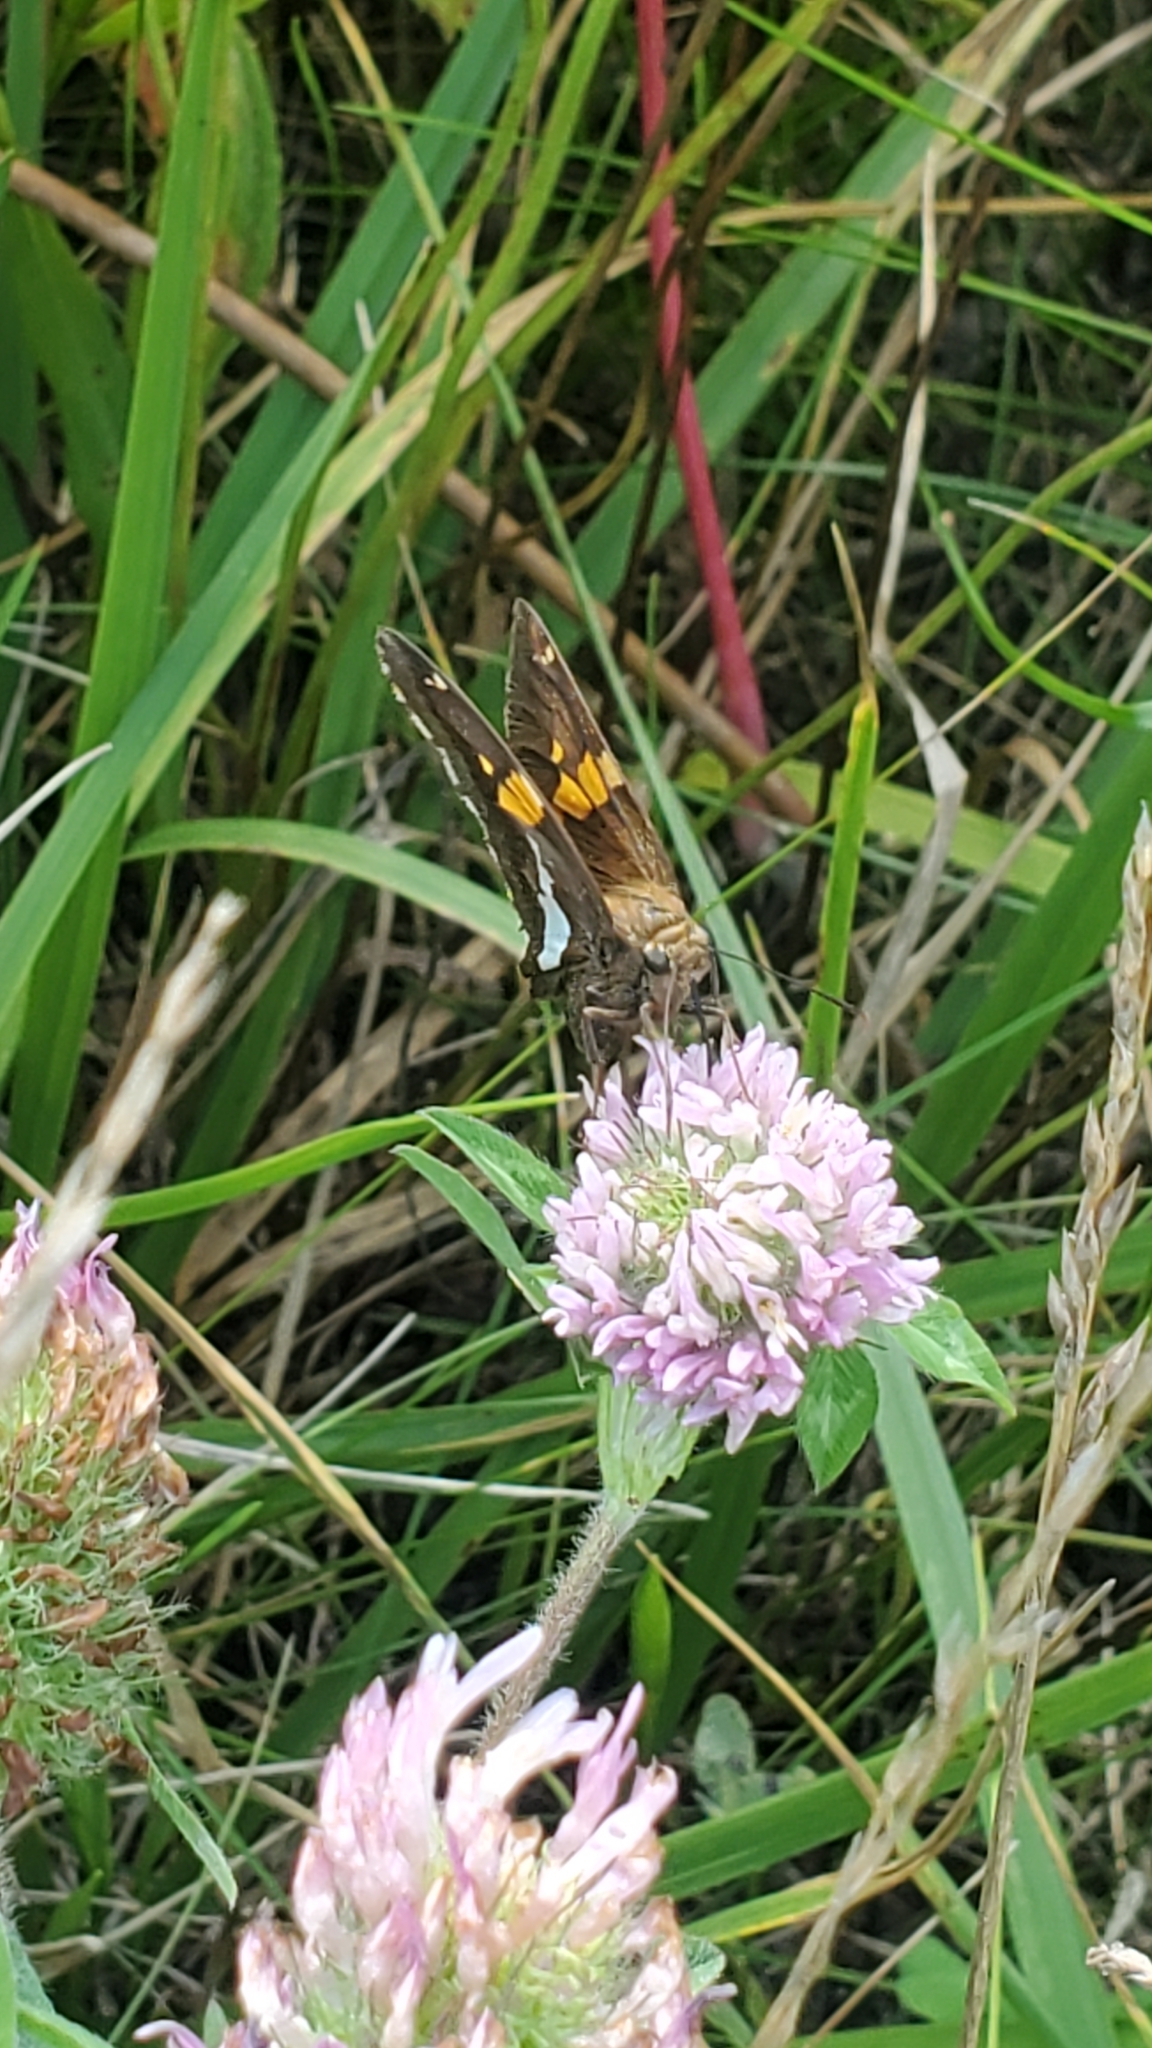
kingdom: Animalia
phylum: Arthropoda
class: Insecta
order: Lepidoptera
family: Hesperiidae
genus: Epargyreus
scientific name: Epargyreus clarus
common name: Silver-spotted skipper
